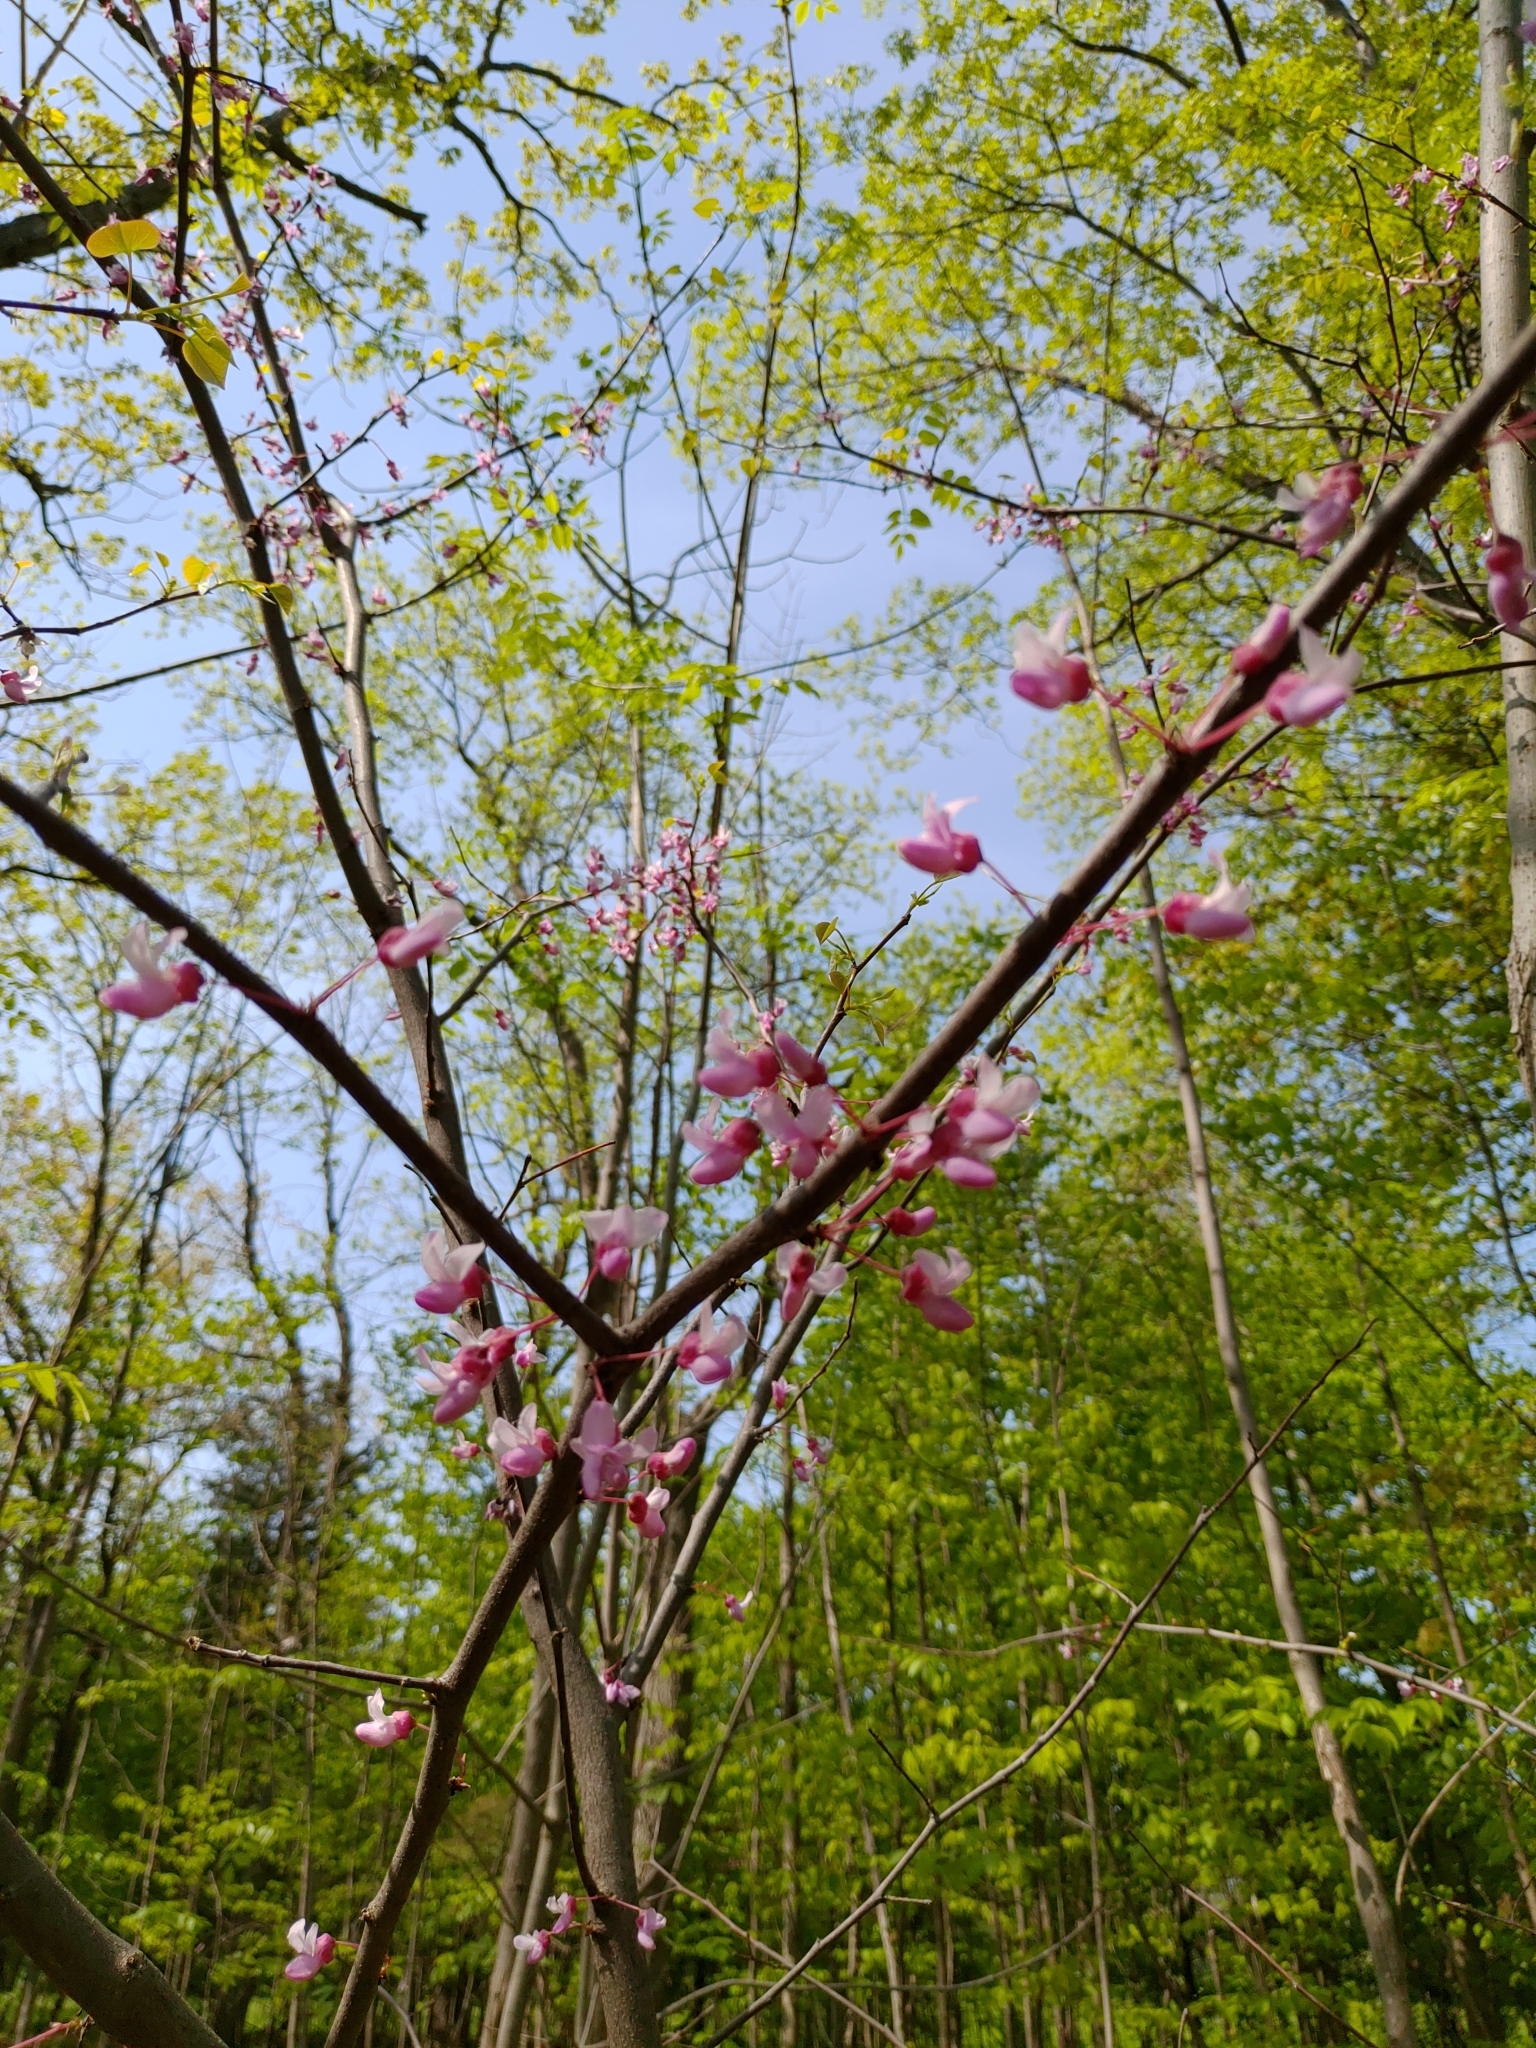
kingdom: Plantae
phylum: Tracheophyta
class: Magnoliopsida
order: Fabales
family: Fabaceae
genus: Cercis
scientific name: Cercis canadensis
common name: Eastern redbud
